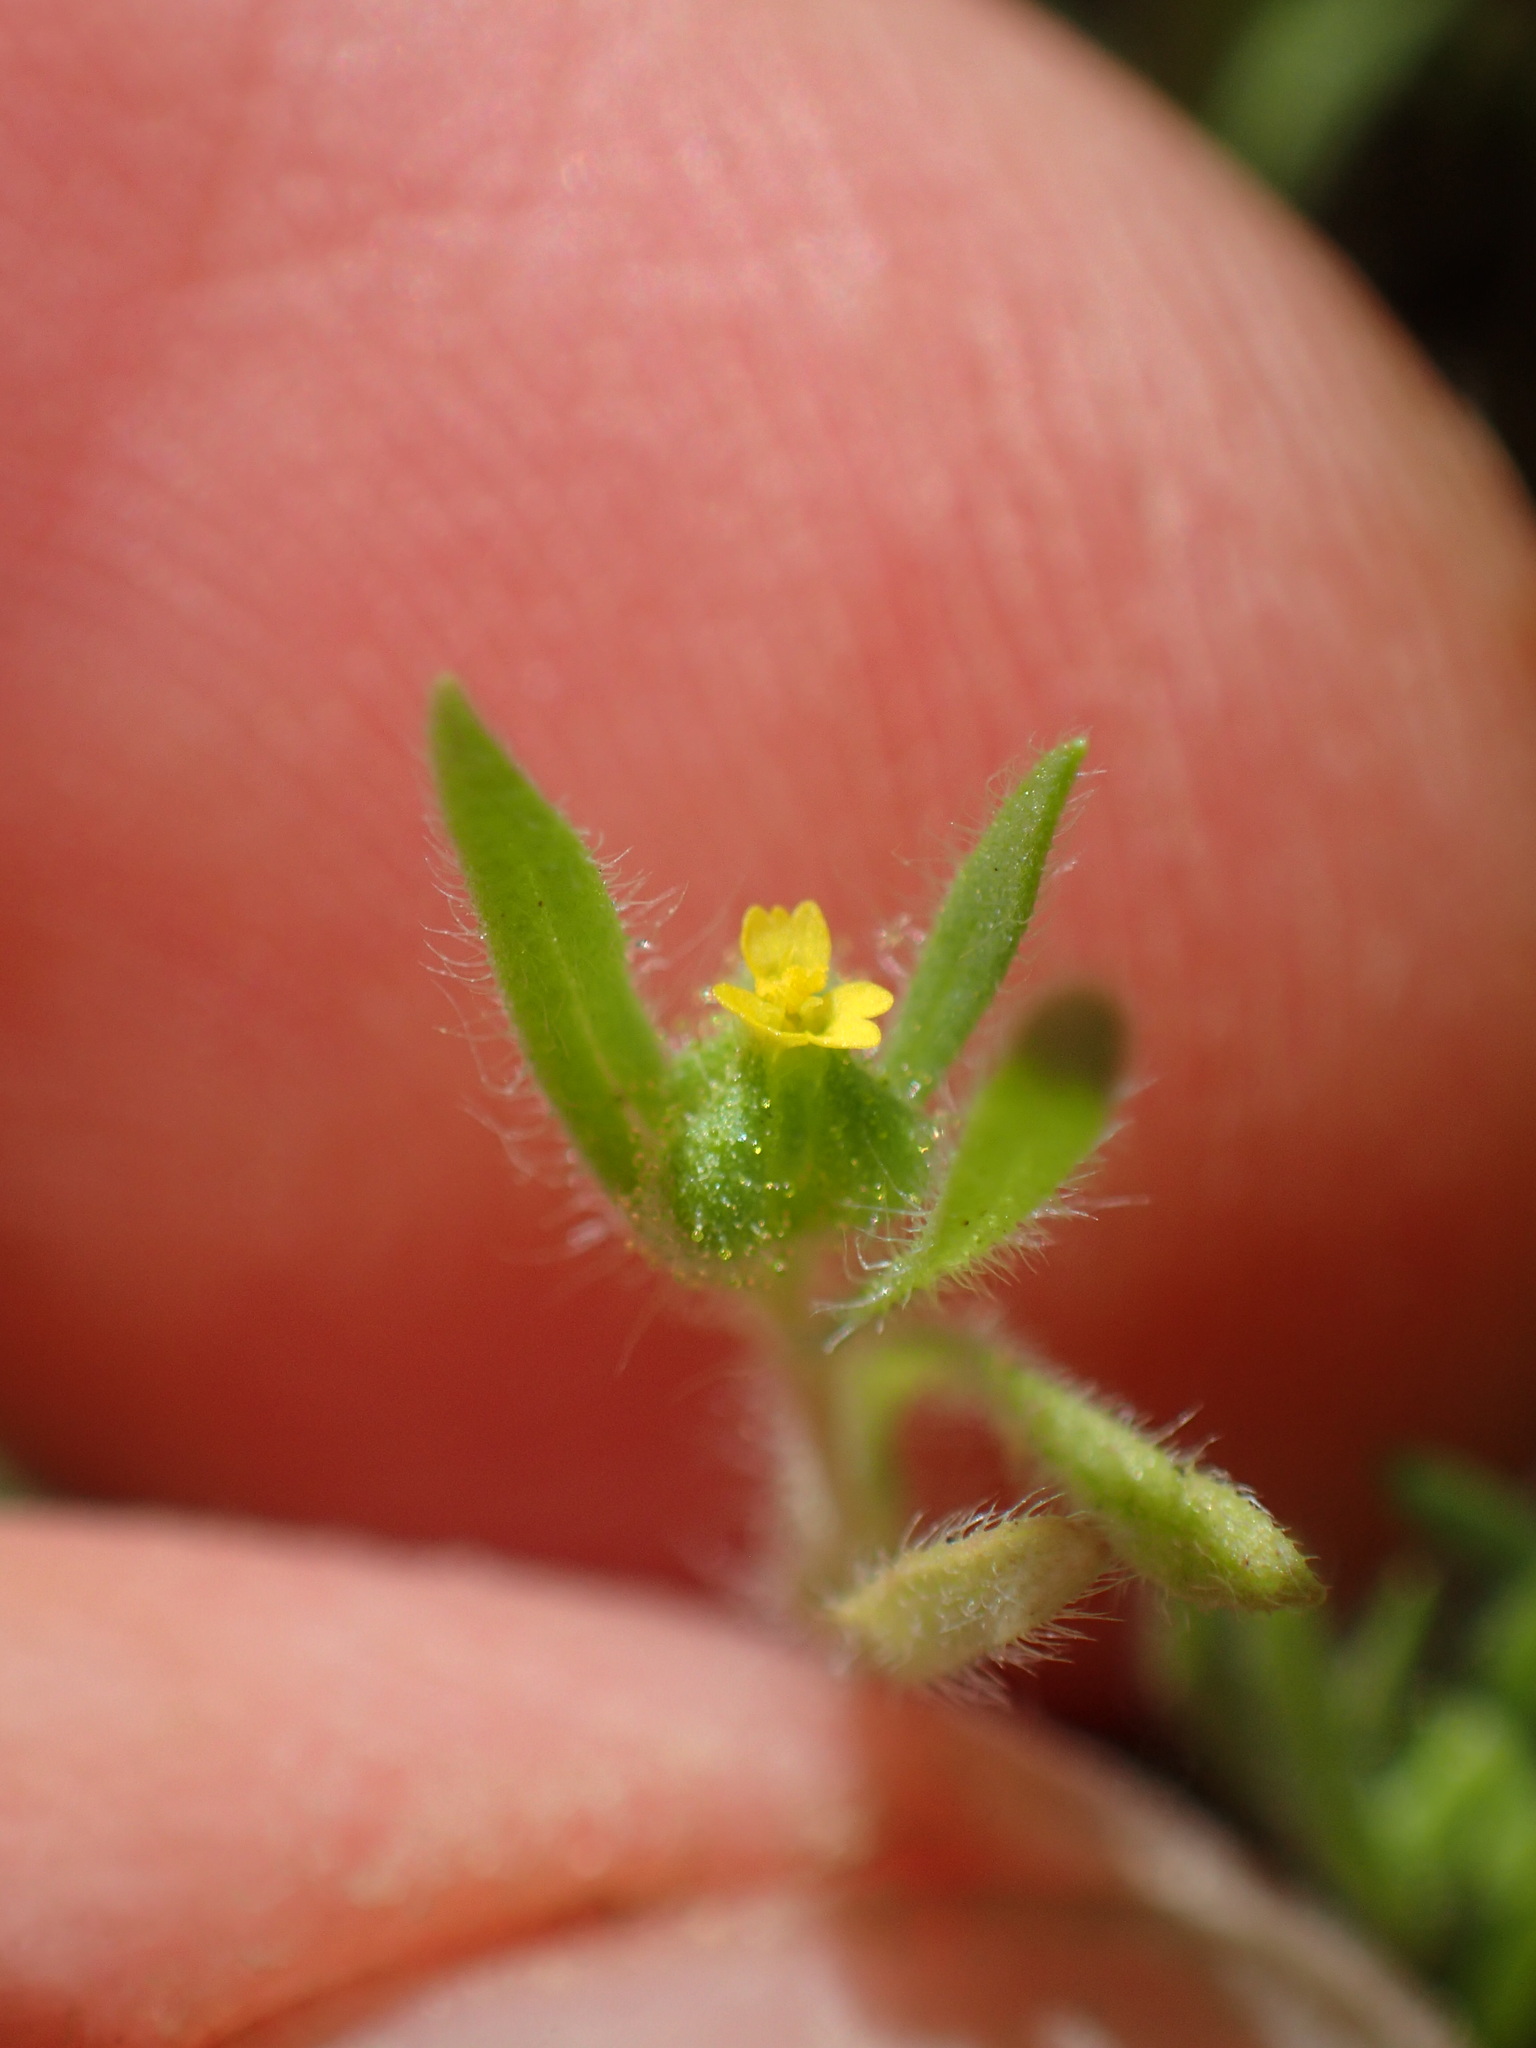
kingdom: Plantae
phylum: Tracheophyta
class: Magnoliopsida
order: Asterales
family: Asteraceae
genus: Madia
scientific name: Madia exigua
